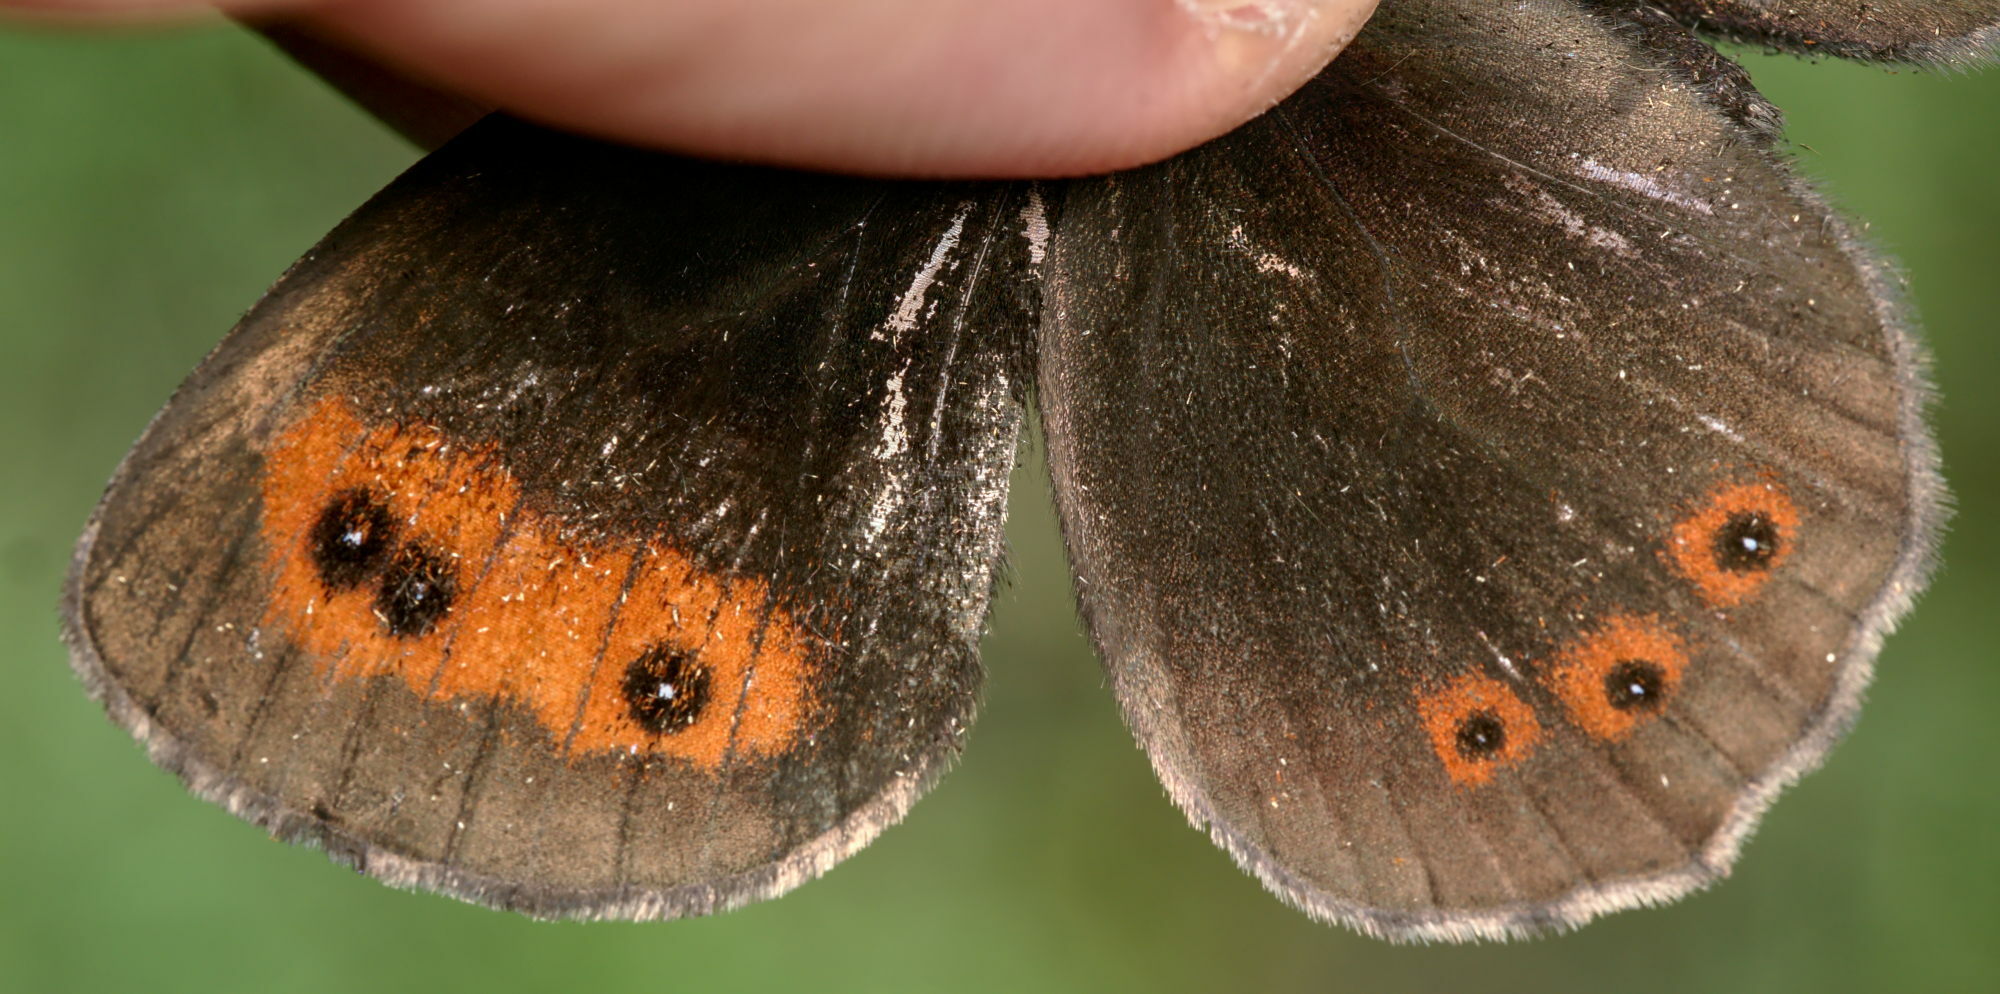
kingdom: Animalia
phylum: Arthropoda
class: Insecta
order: Lepidoptera
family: Nymphalidae
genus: Erebia
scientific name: Erebia aethiops
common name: Scotch argus
